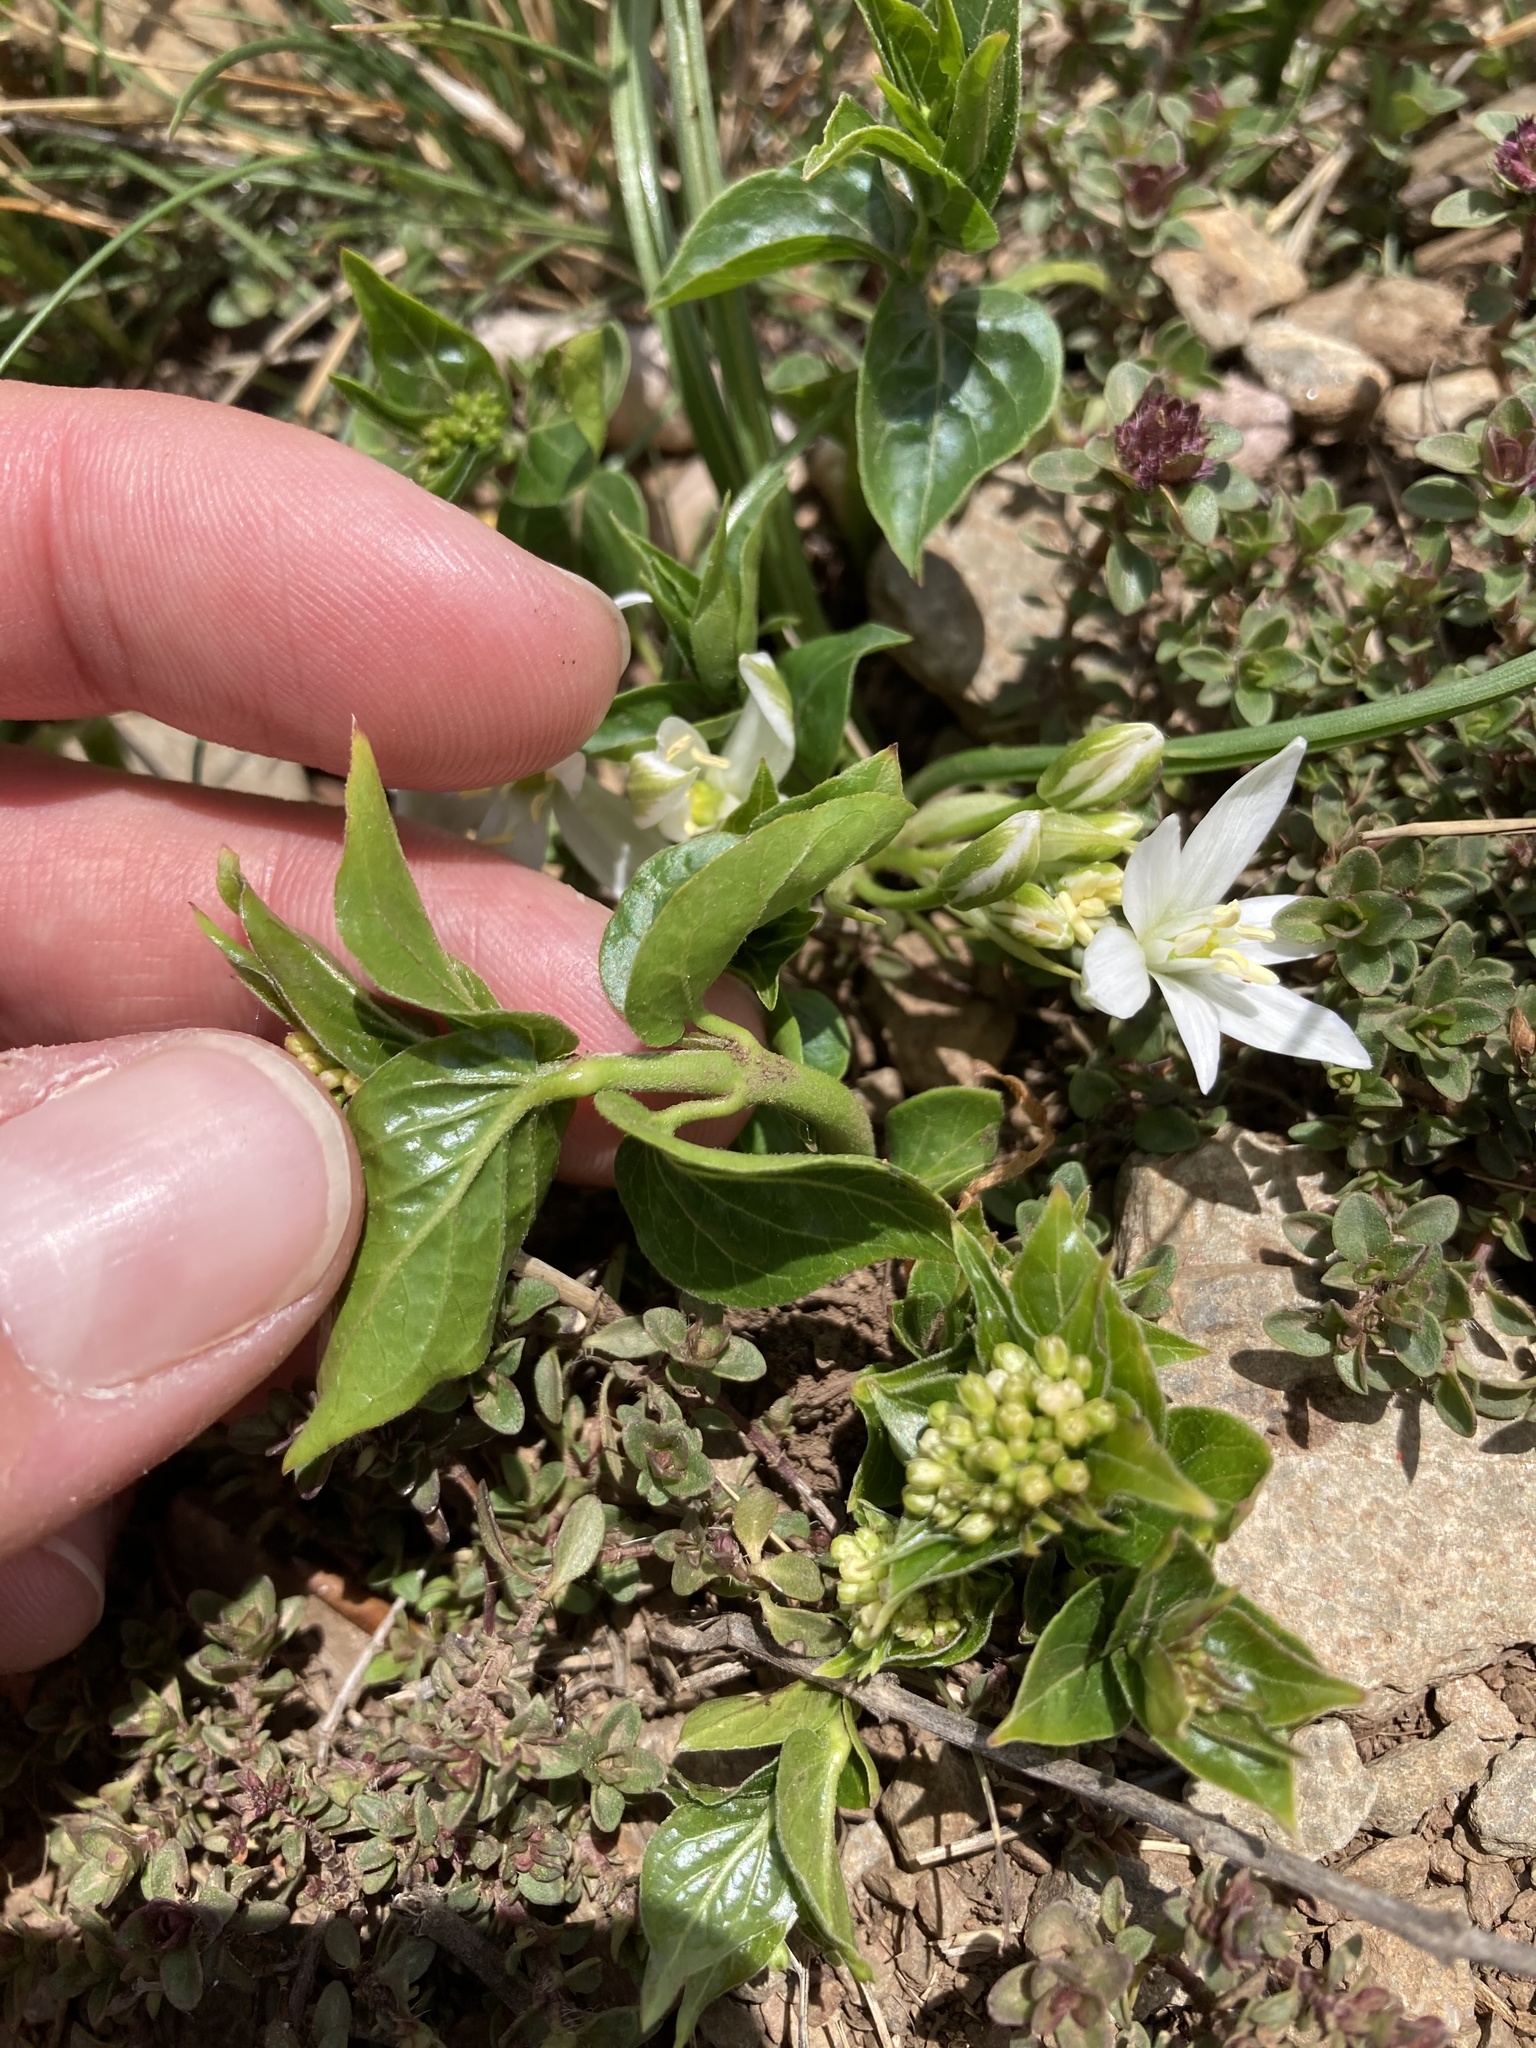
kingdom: Plantae
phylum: Tracheophyta
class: Magnoliopsida
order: Gentianales
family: Apocynaceae
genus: Vincetoxicum
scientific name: Vincetoxicum hirundinaria
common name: White swallowwort
